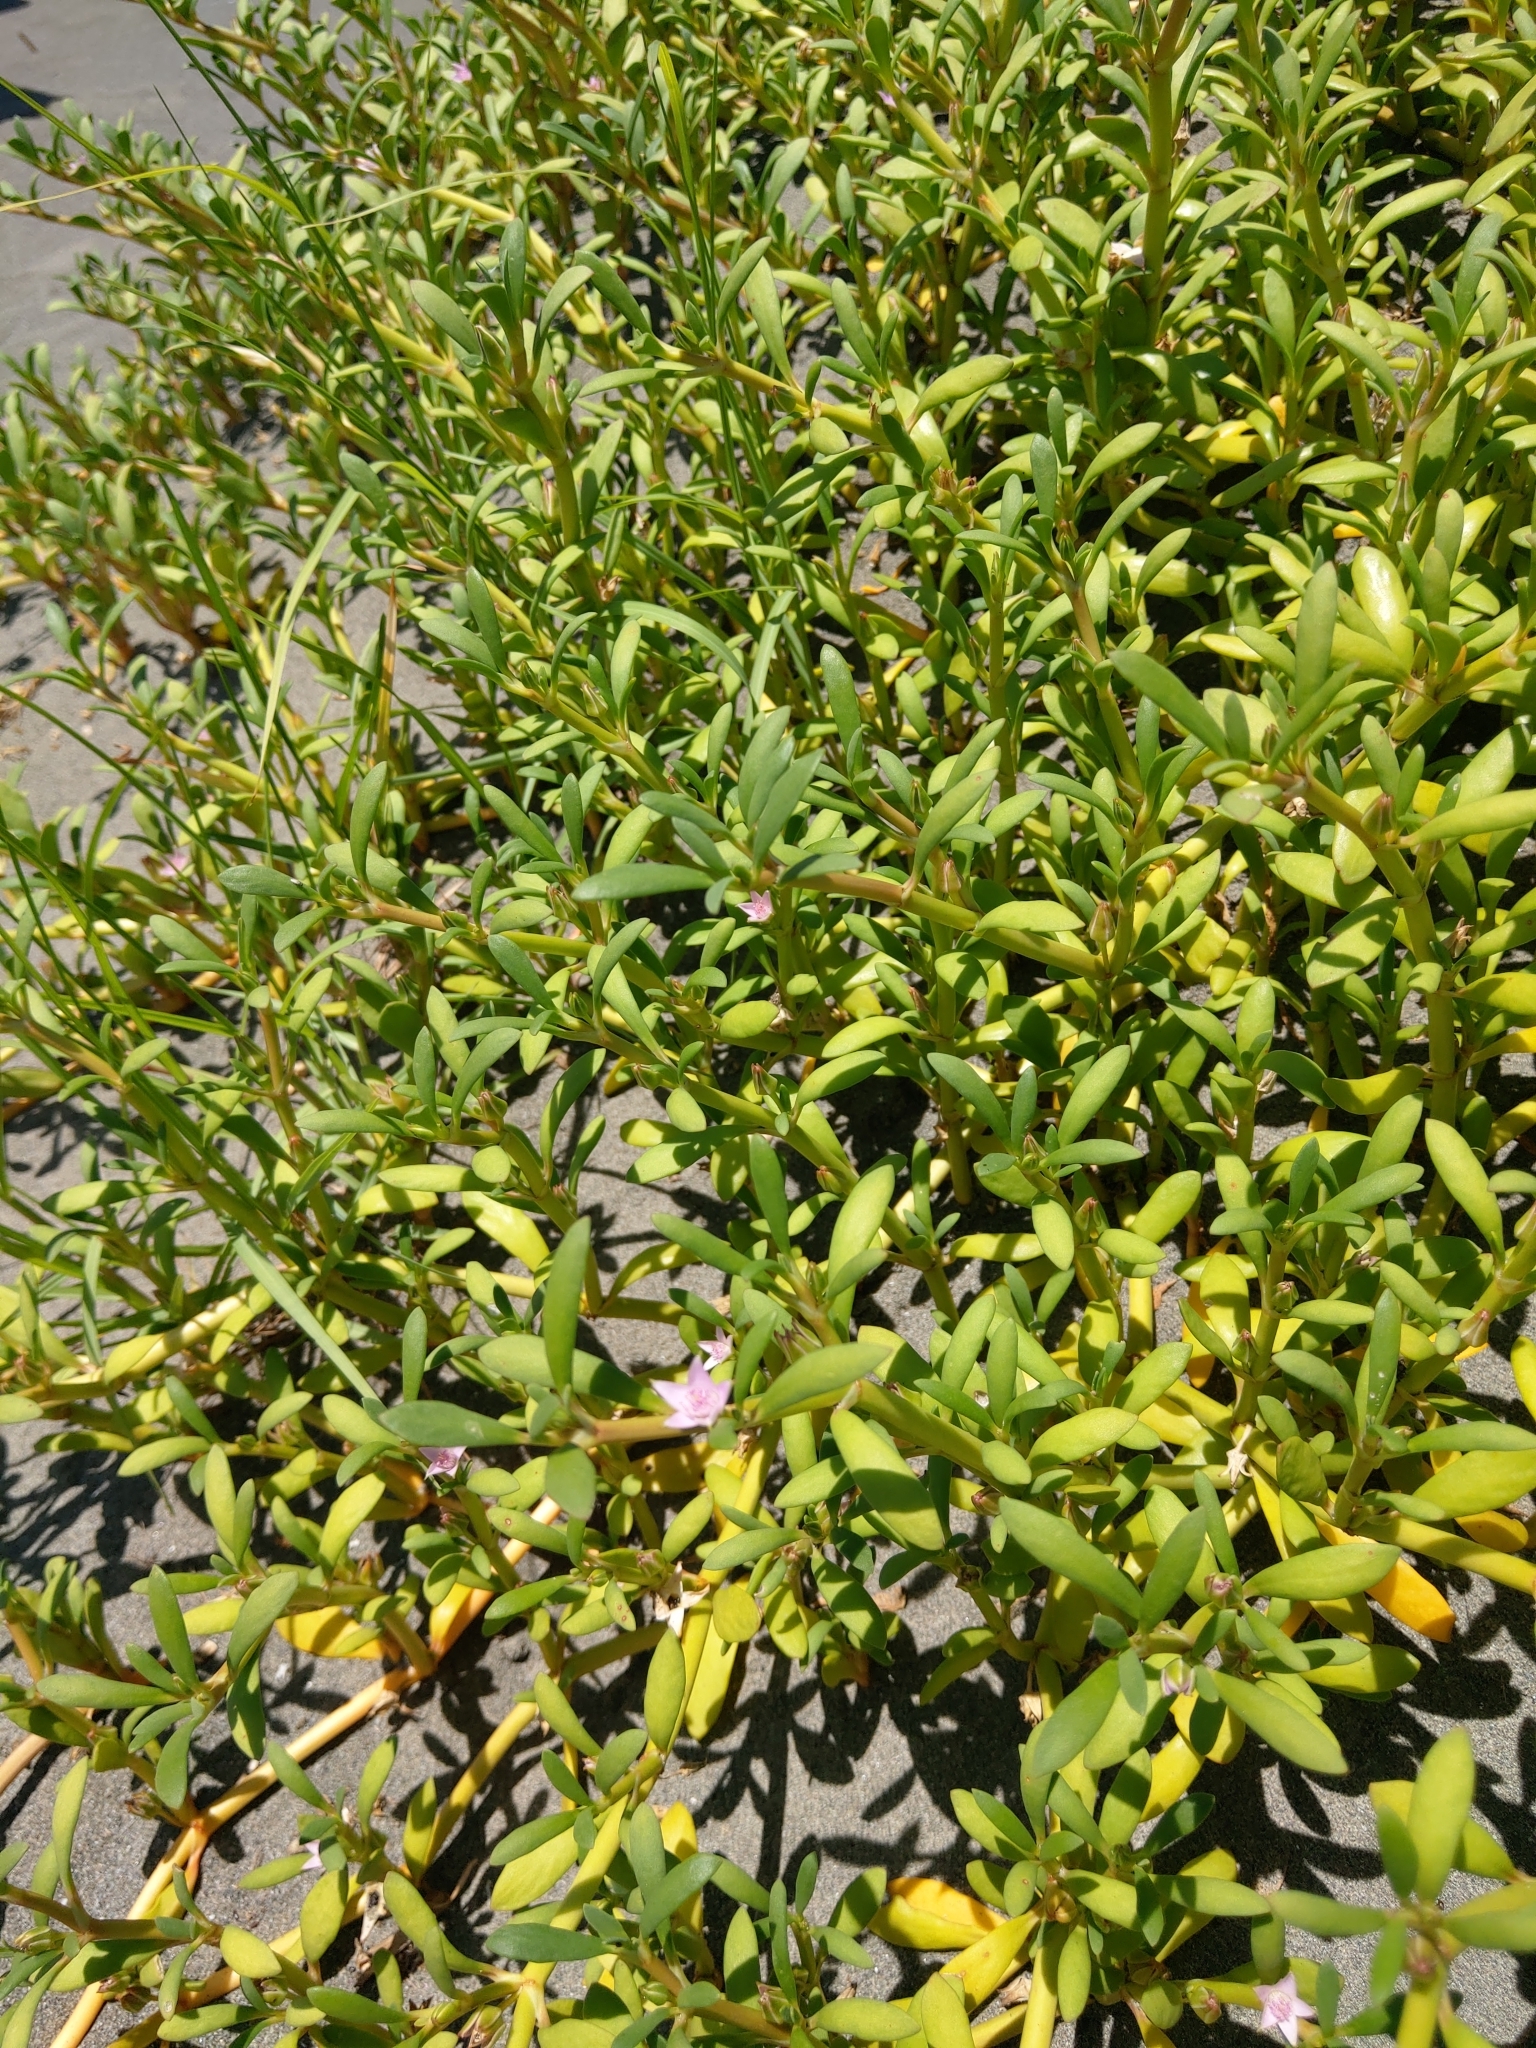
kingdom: Plantae
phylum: Tracheophyta
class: Magnoliopsida
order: Caryophyllales
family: Aizoaceae
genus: Sesuvium
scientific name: Sesuvium portulacastrum
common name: Sea-purslane
